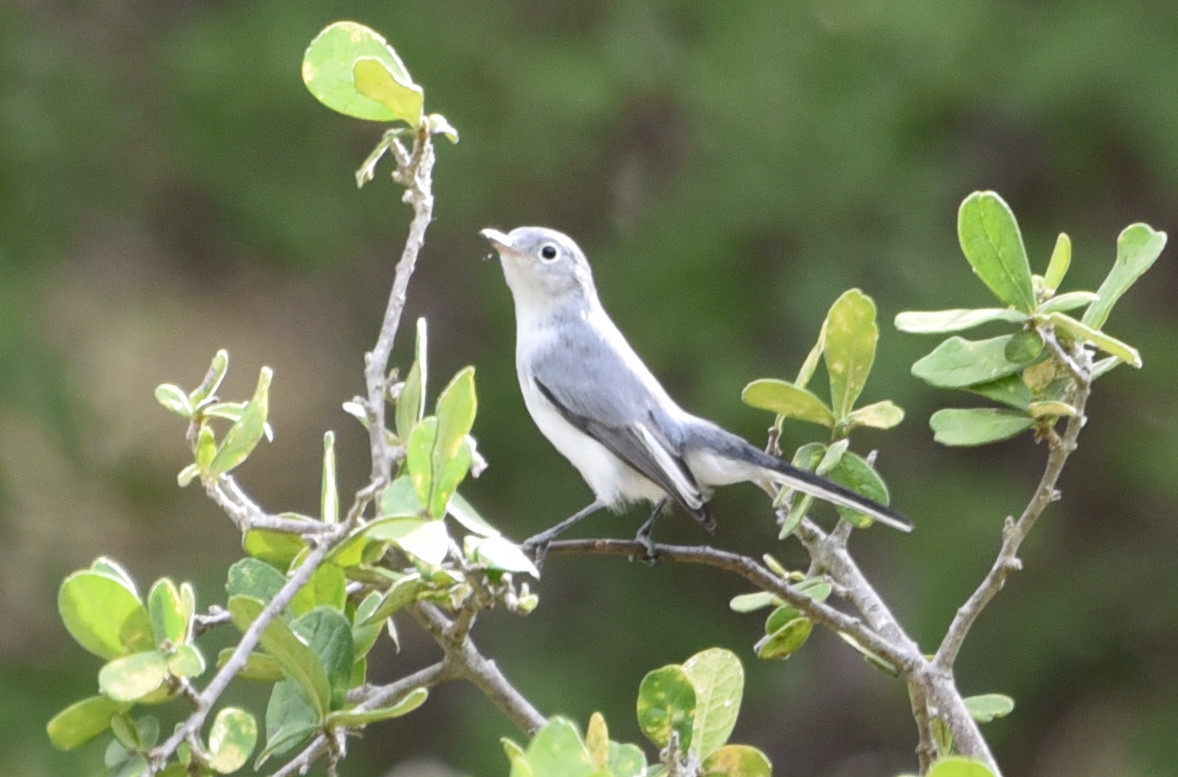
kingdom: Animalia
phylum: Chordata
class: Aves
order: Passeriformes
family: Polioptilidae
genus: Polioptila
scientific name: Polioptila caerulea
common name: Blue-gray gnatcatcher
